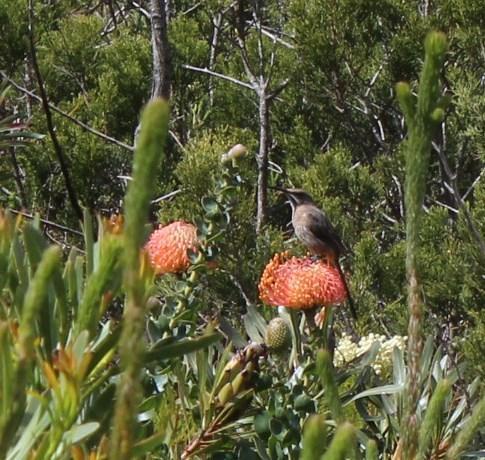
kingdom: Animalia
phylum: Chordata
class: Aves
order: Passeriformes
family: Promeropidae
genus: Promerops
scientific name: Promerops cafer
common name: Cape sugarbird
